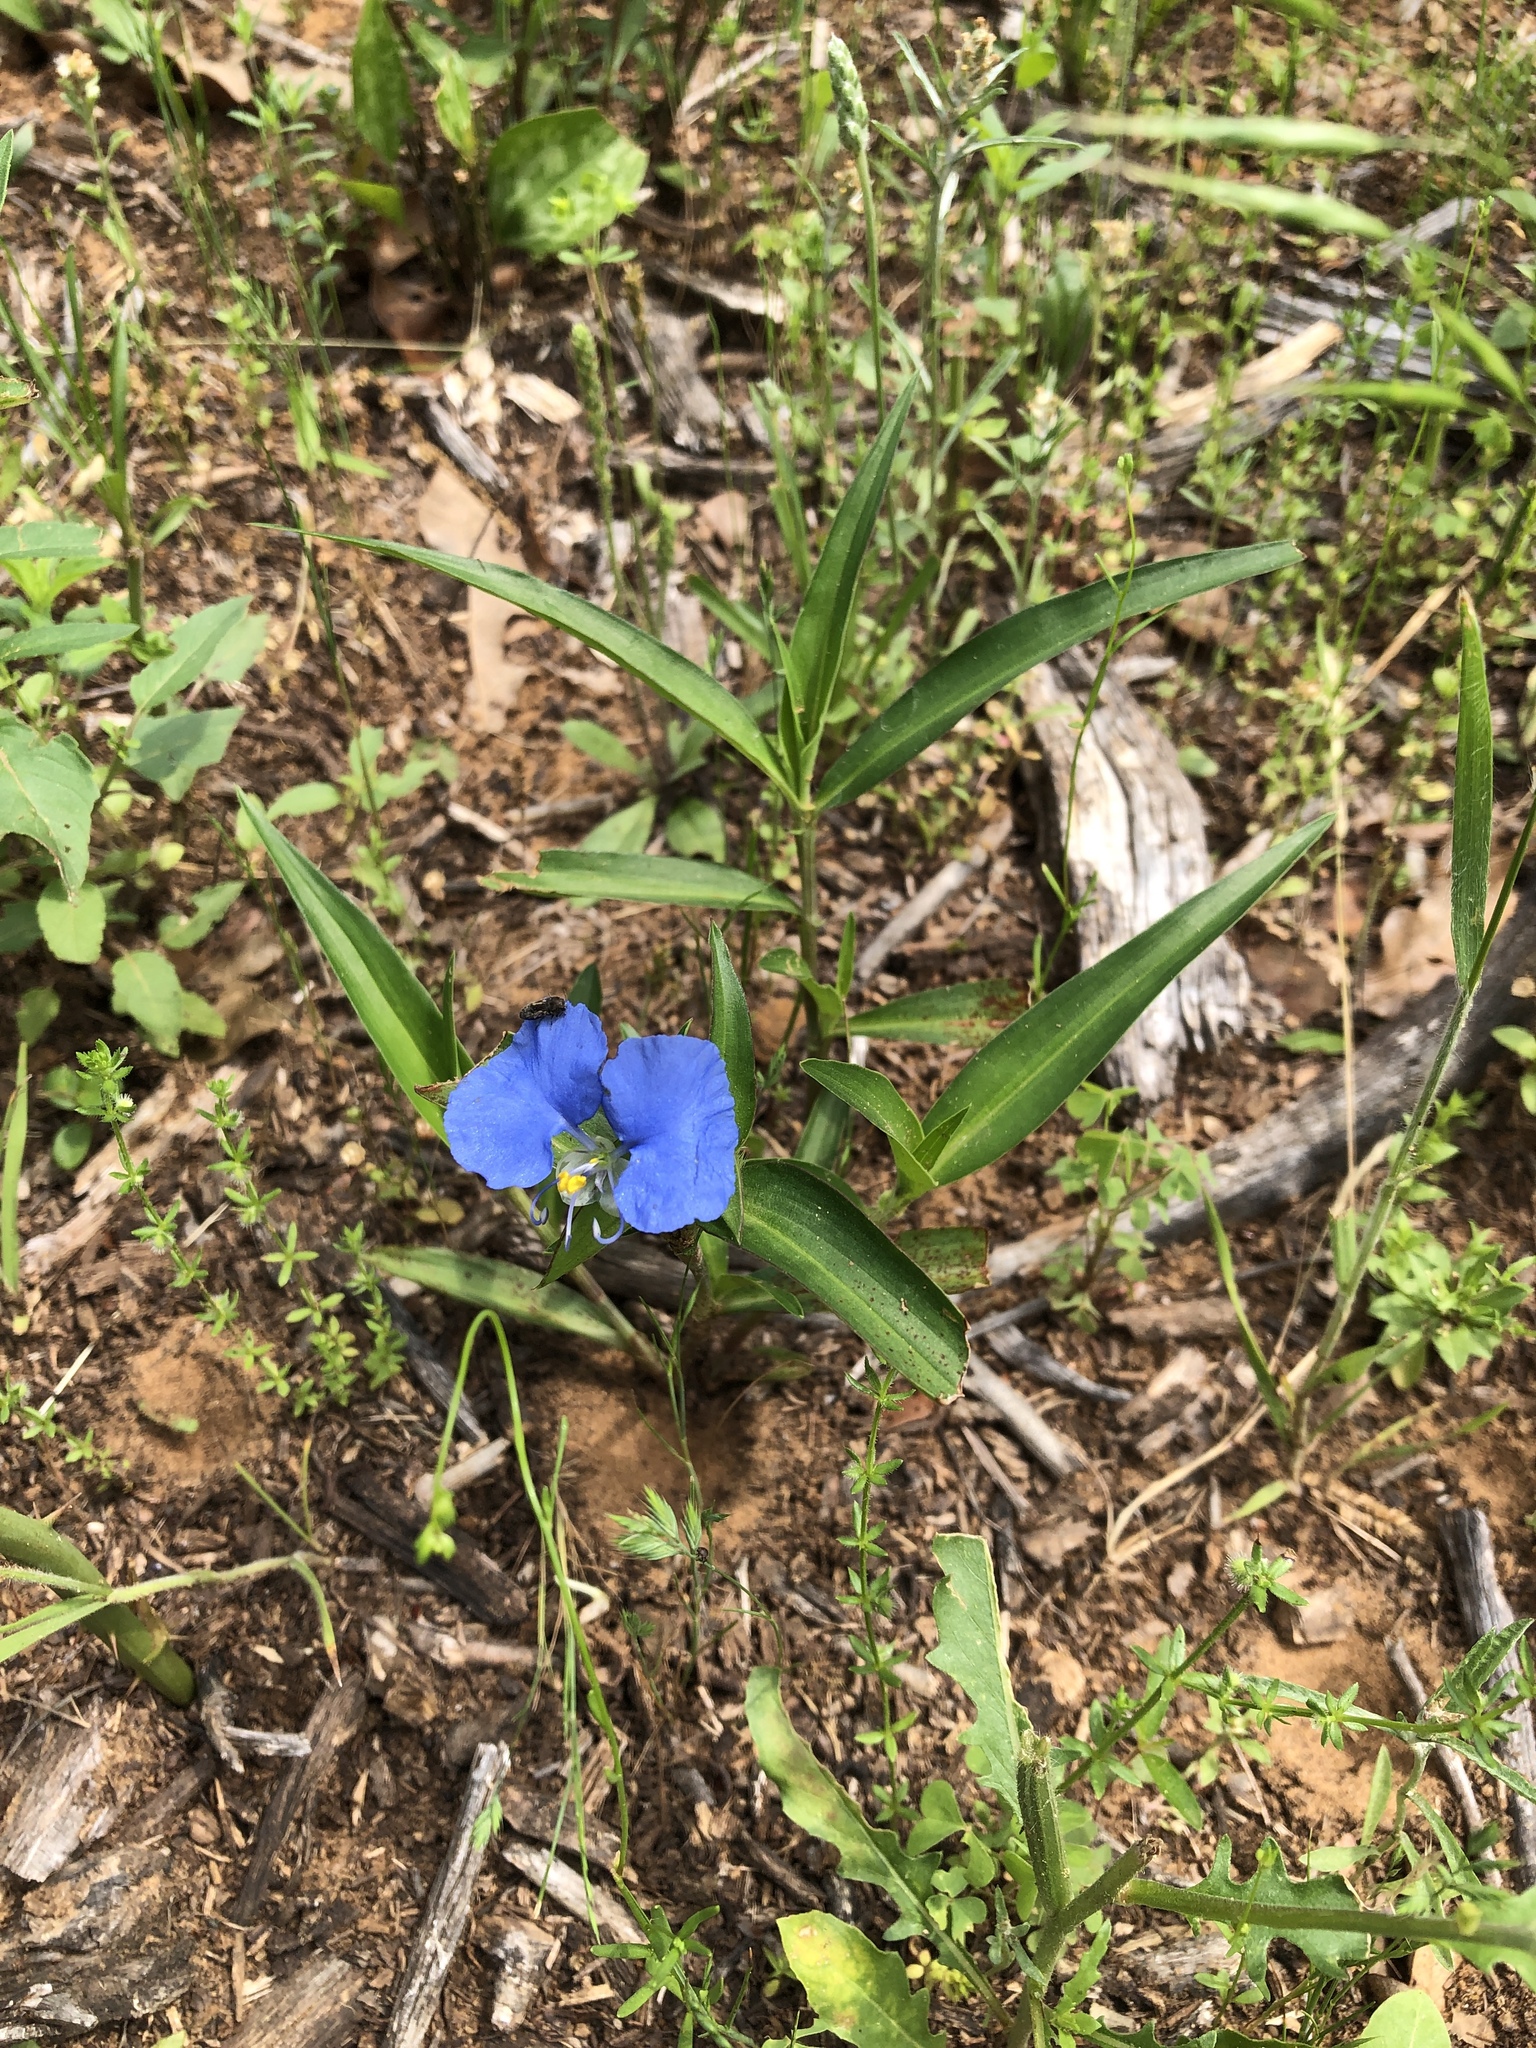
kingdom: Plantae
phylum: Tracheophyta
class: Liliopsida
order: Commelinales
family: Commelinaceae
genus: Commelina
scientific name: Commelina erecta
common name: Blousel blommetjie
